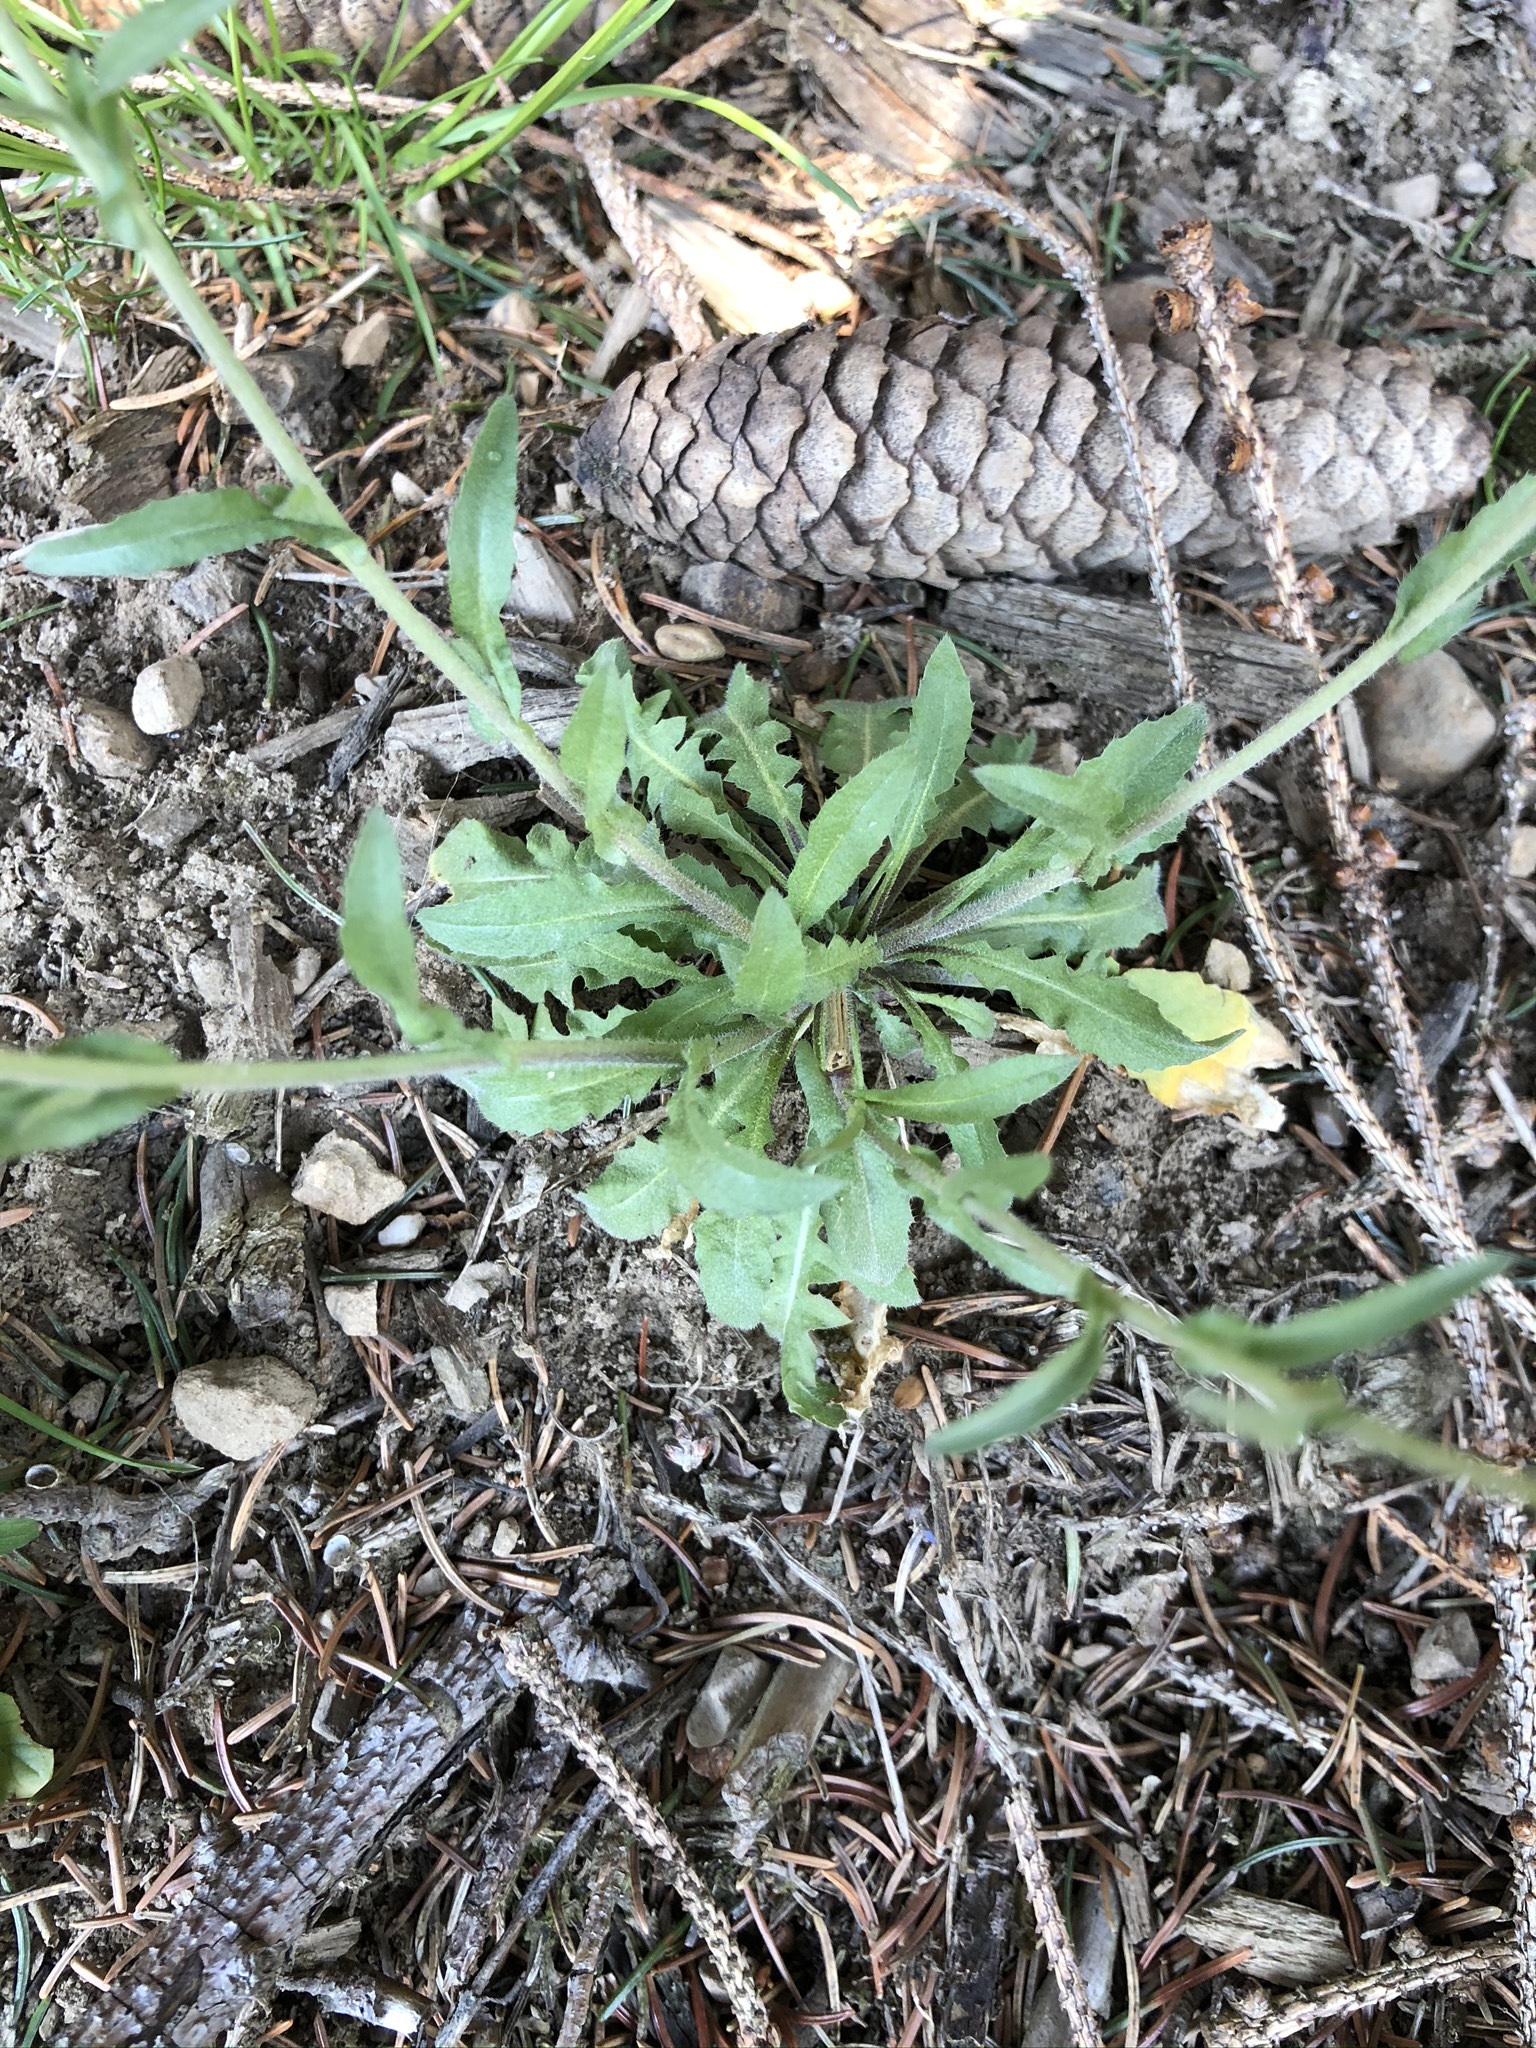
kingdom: Plantae
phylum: Tracheophyta
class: Magnoliopsida
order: Brassicales
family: Brassicaceae
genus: Capsella
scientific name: Capsella bursa-pastoris
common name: Shepherd's purse
